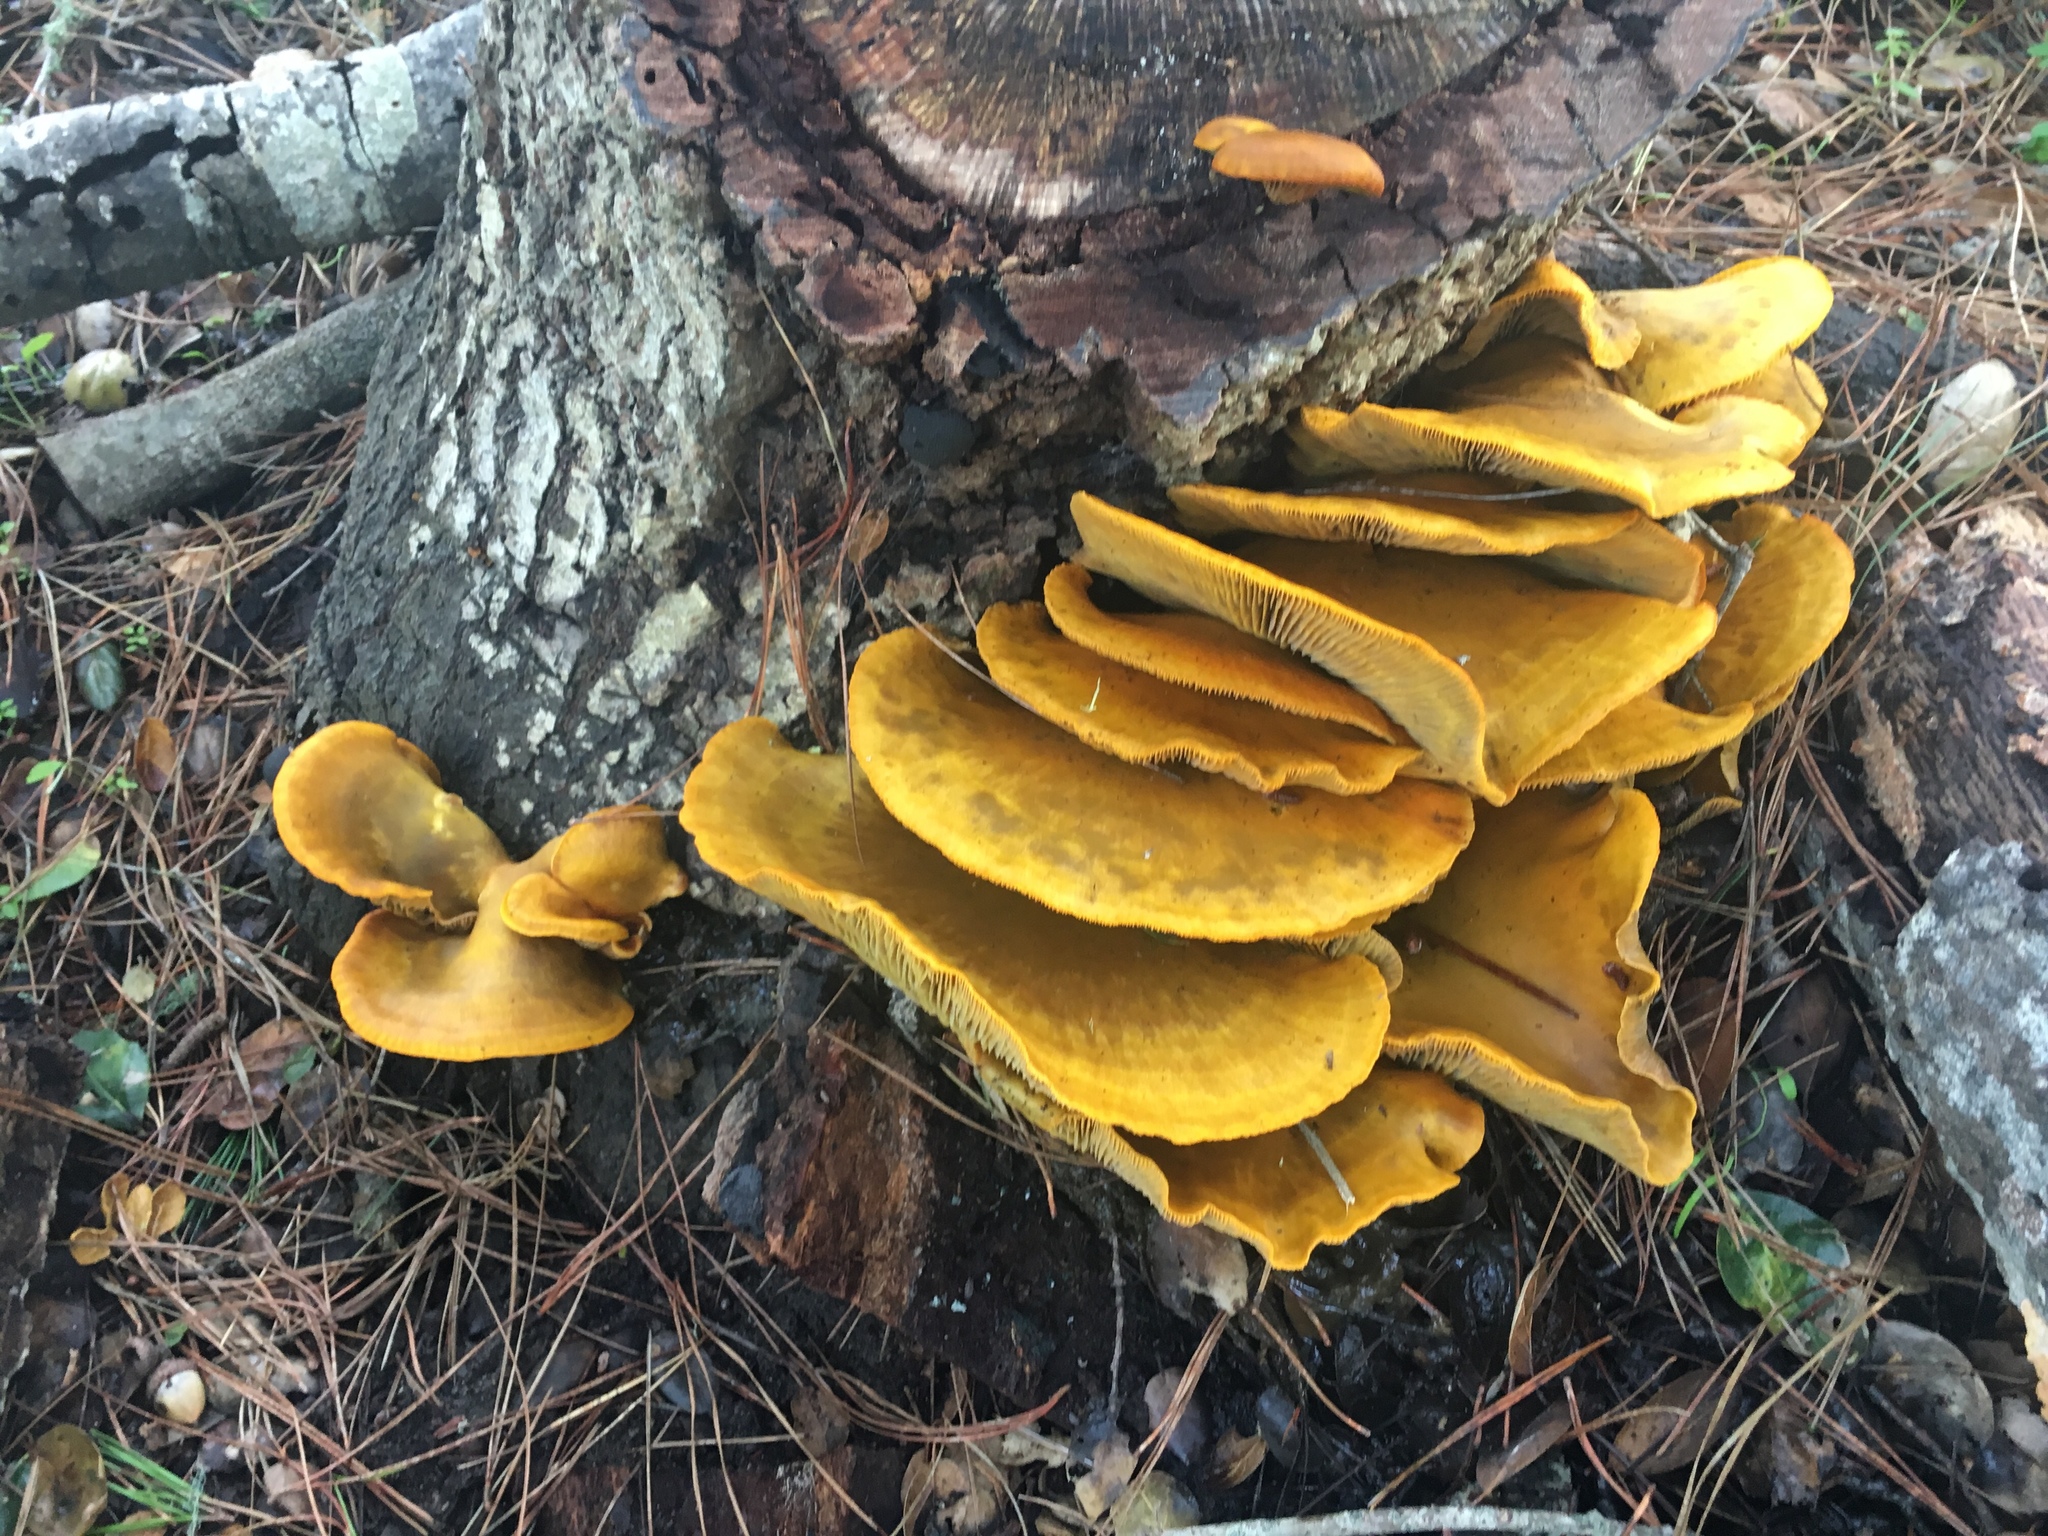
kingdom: Fungi
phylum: Basidiomycota
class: Agaricomycetes
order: Agaricales
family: Omphalotaceae
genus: Omphalotus
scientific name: Omphalotus olivascens
